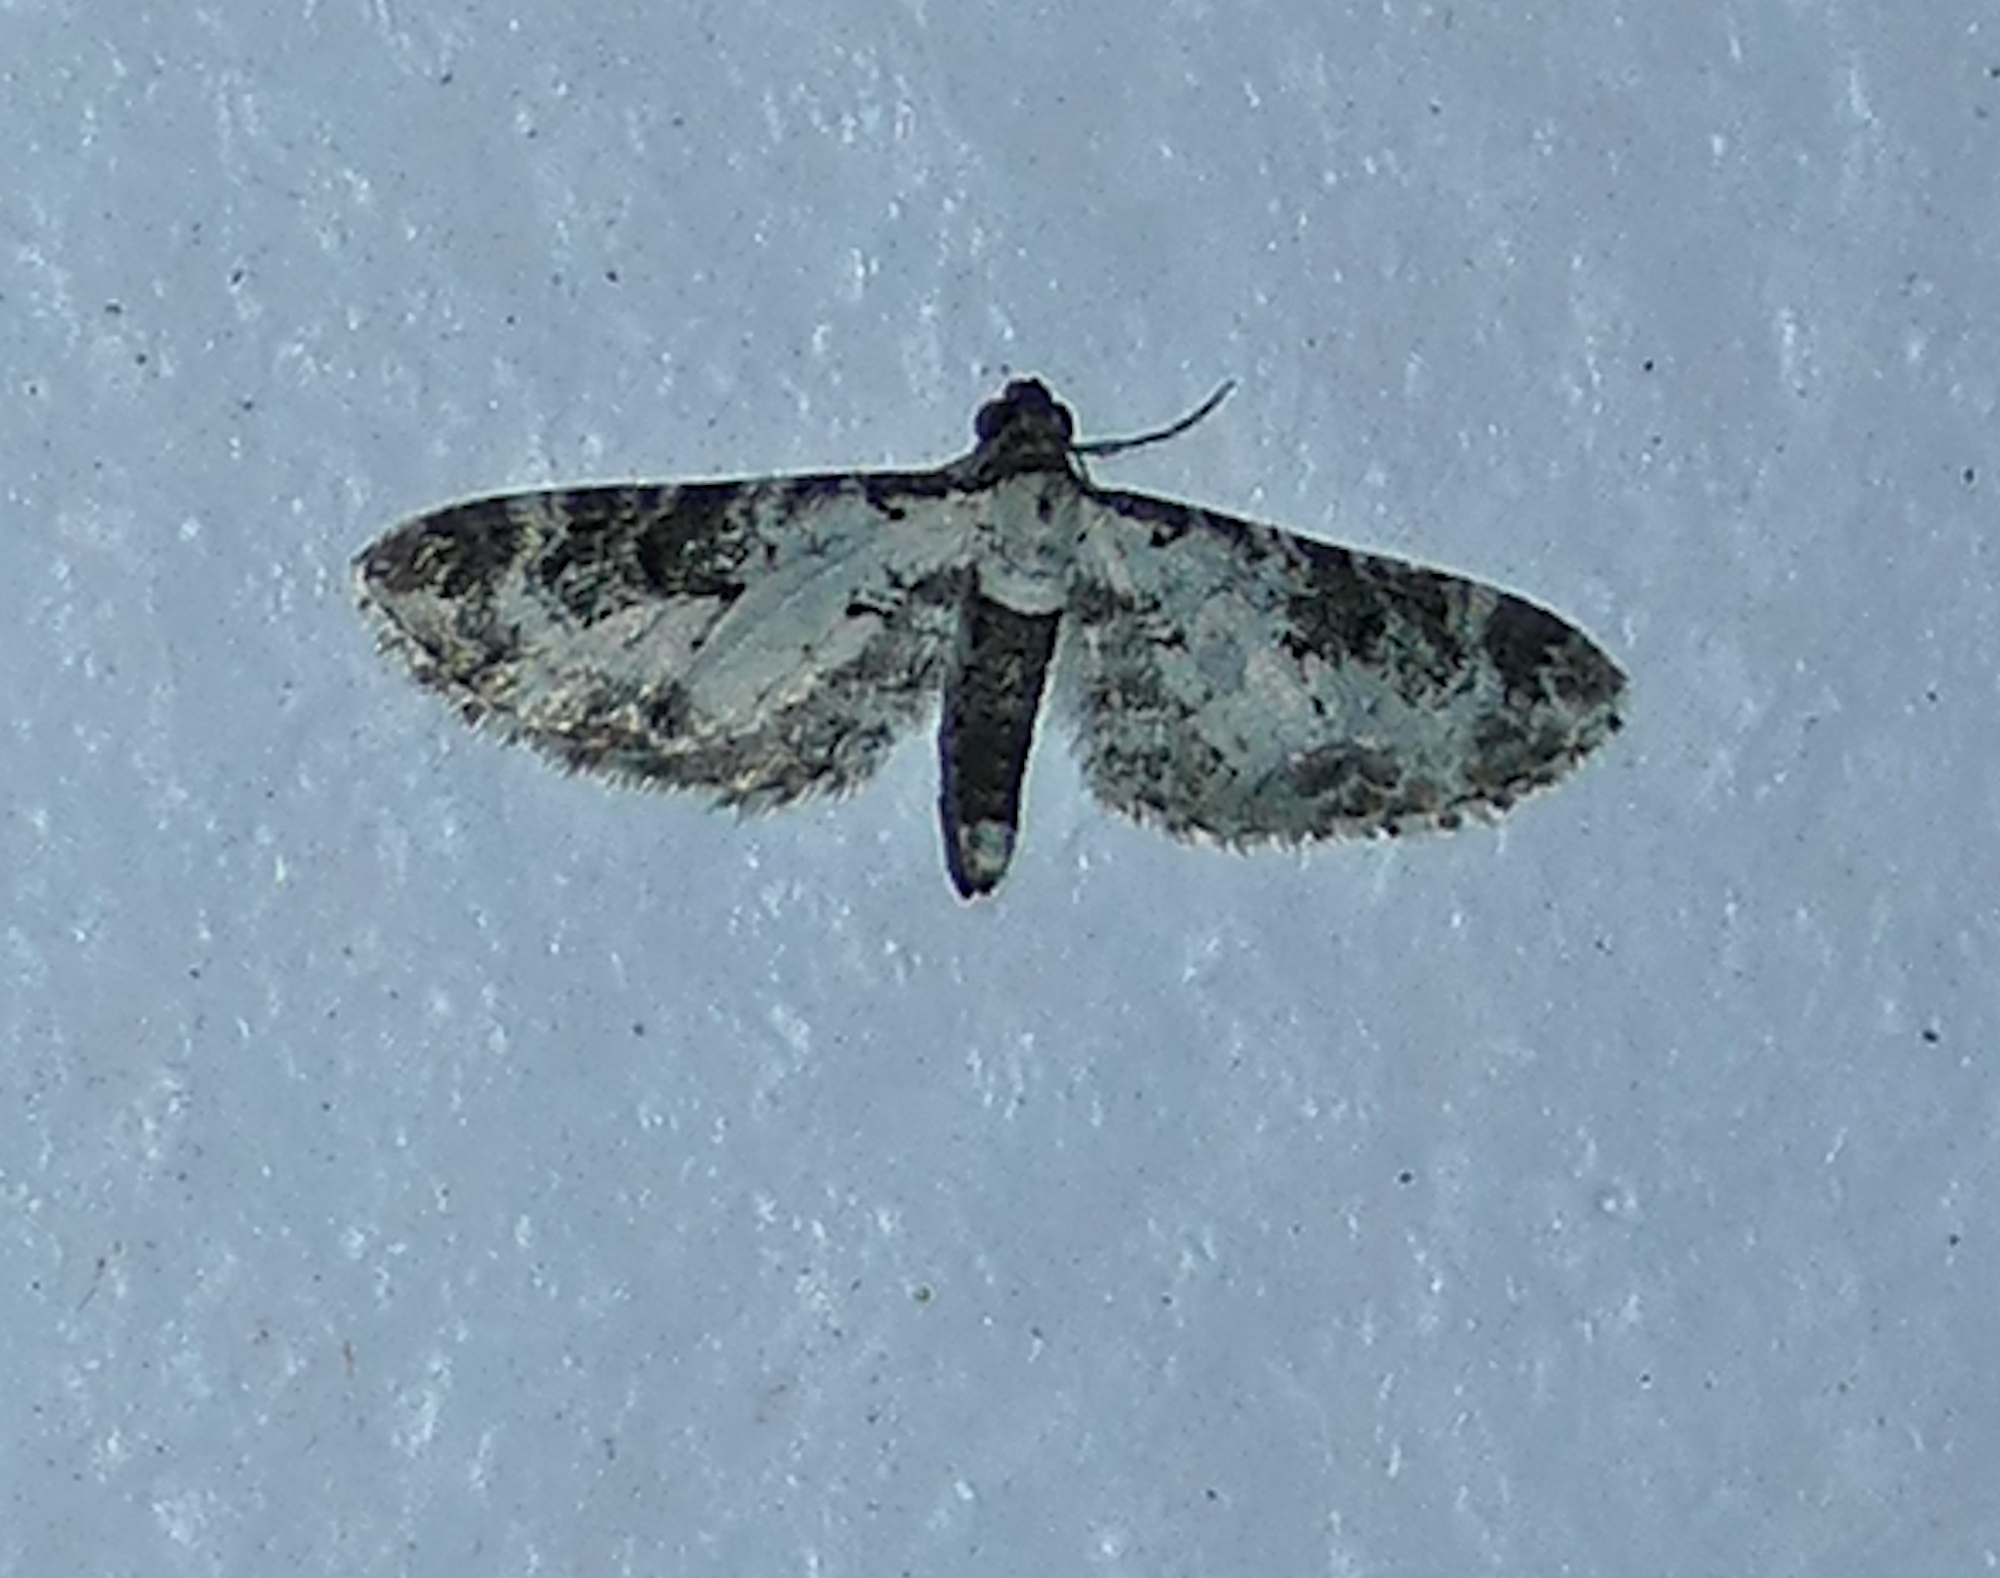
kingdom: Animalia
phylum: Arthropoda
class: Insecta
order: Lepidoptera
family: Geometridae
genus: Prorella
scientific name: Prorella gypsata
